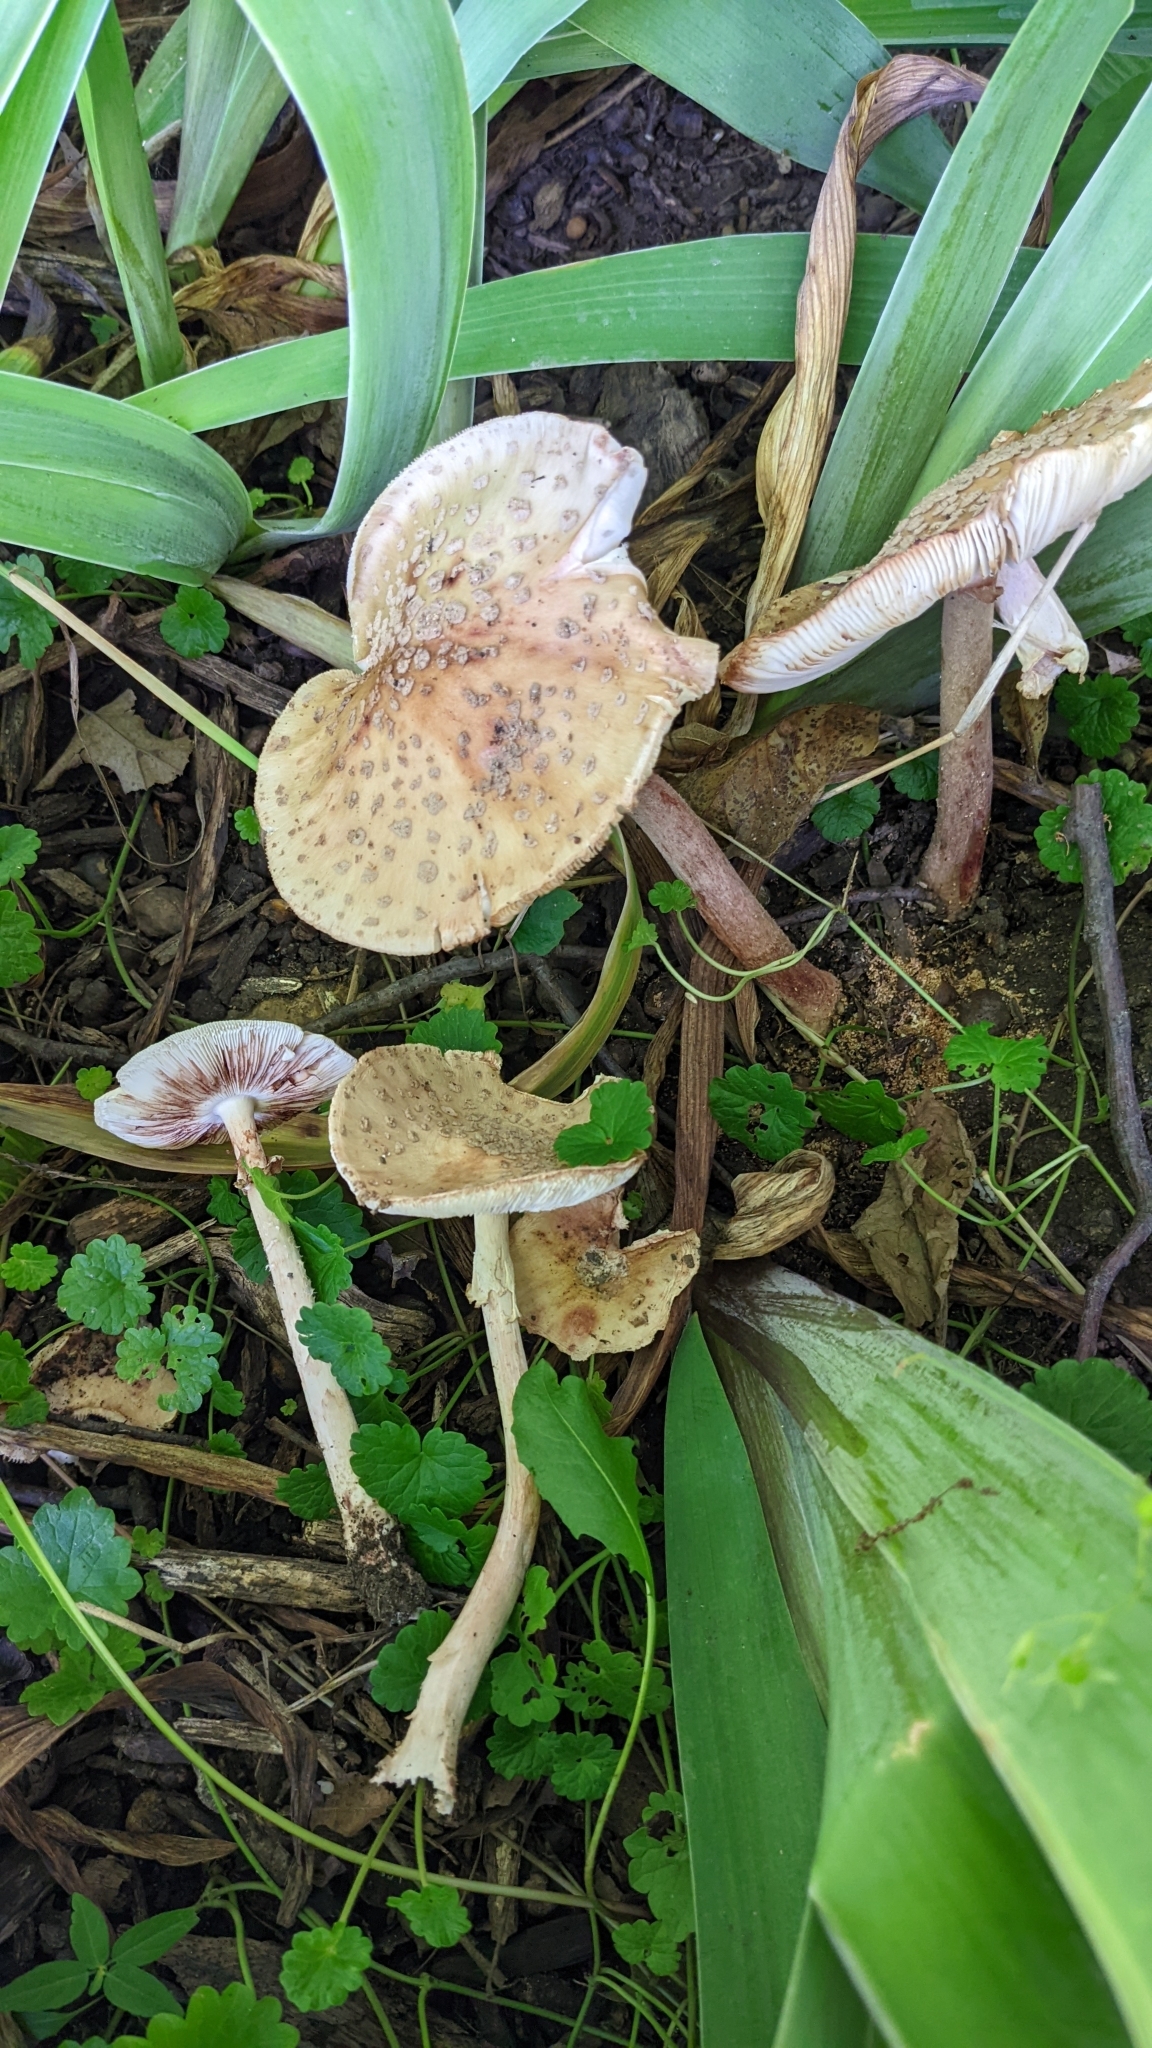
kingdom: Fungi
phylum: Basidiomycota
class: Agaricomycetes
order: Agaricales
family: Amanitaceae
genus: Amanita
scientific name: Amanita rubescens
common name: Blusher
